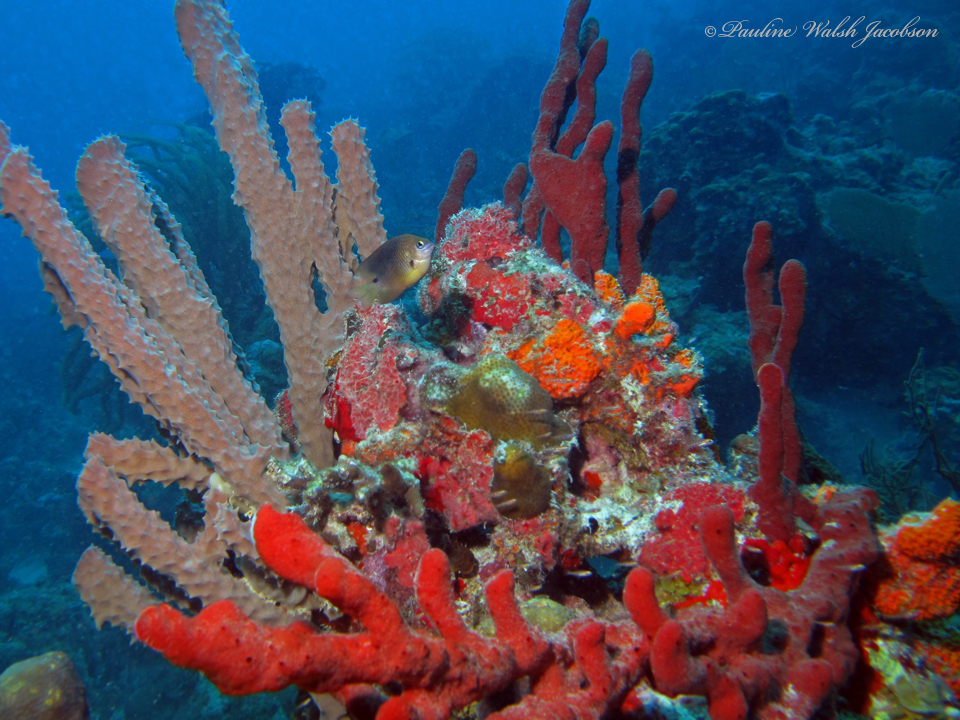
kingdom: Animalia
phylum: Chordata
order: Perciformes
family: Pomacentridae
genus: Stegastes
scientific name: Stegastes planifrons
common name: Threespot damselfish
